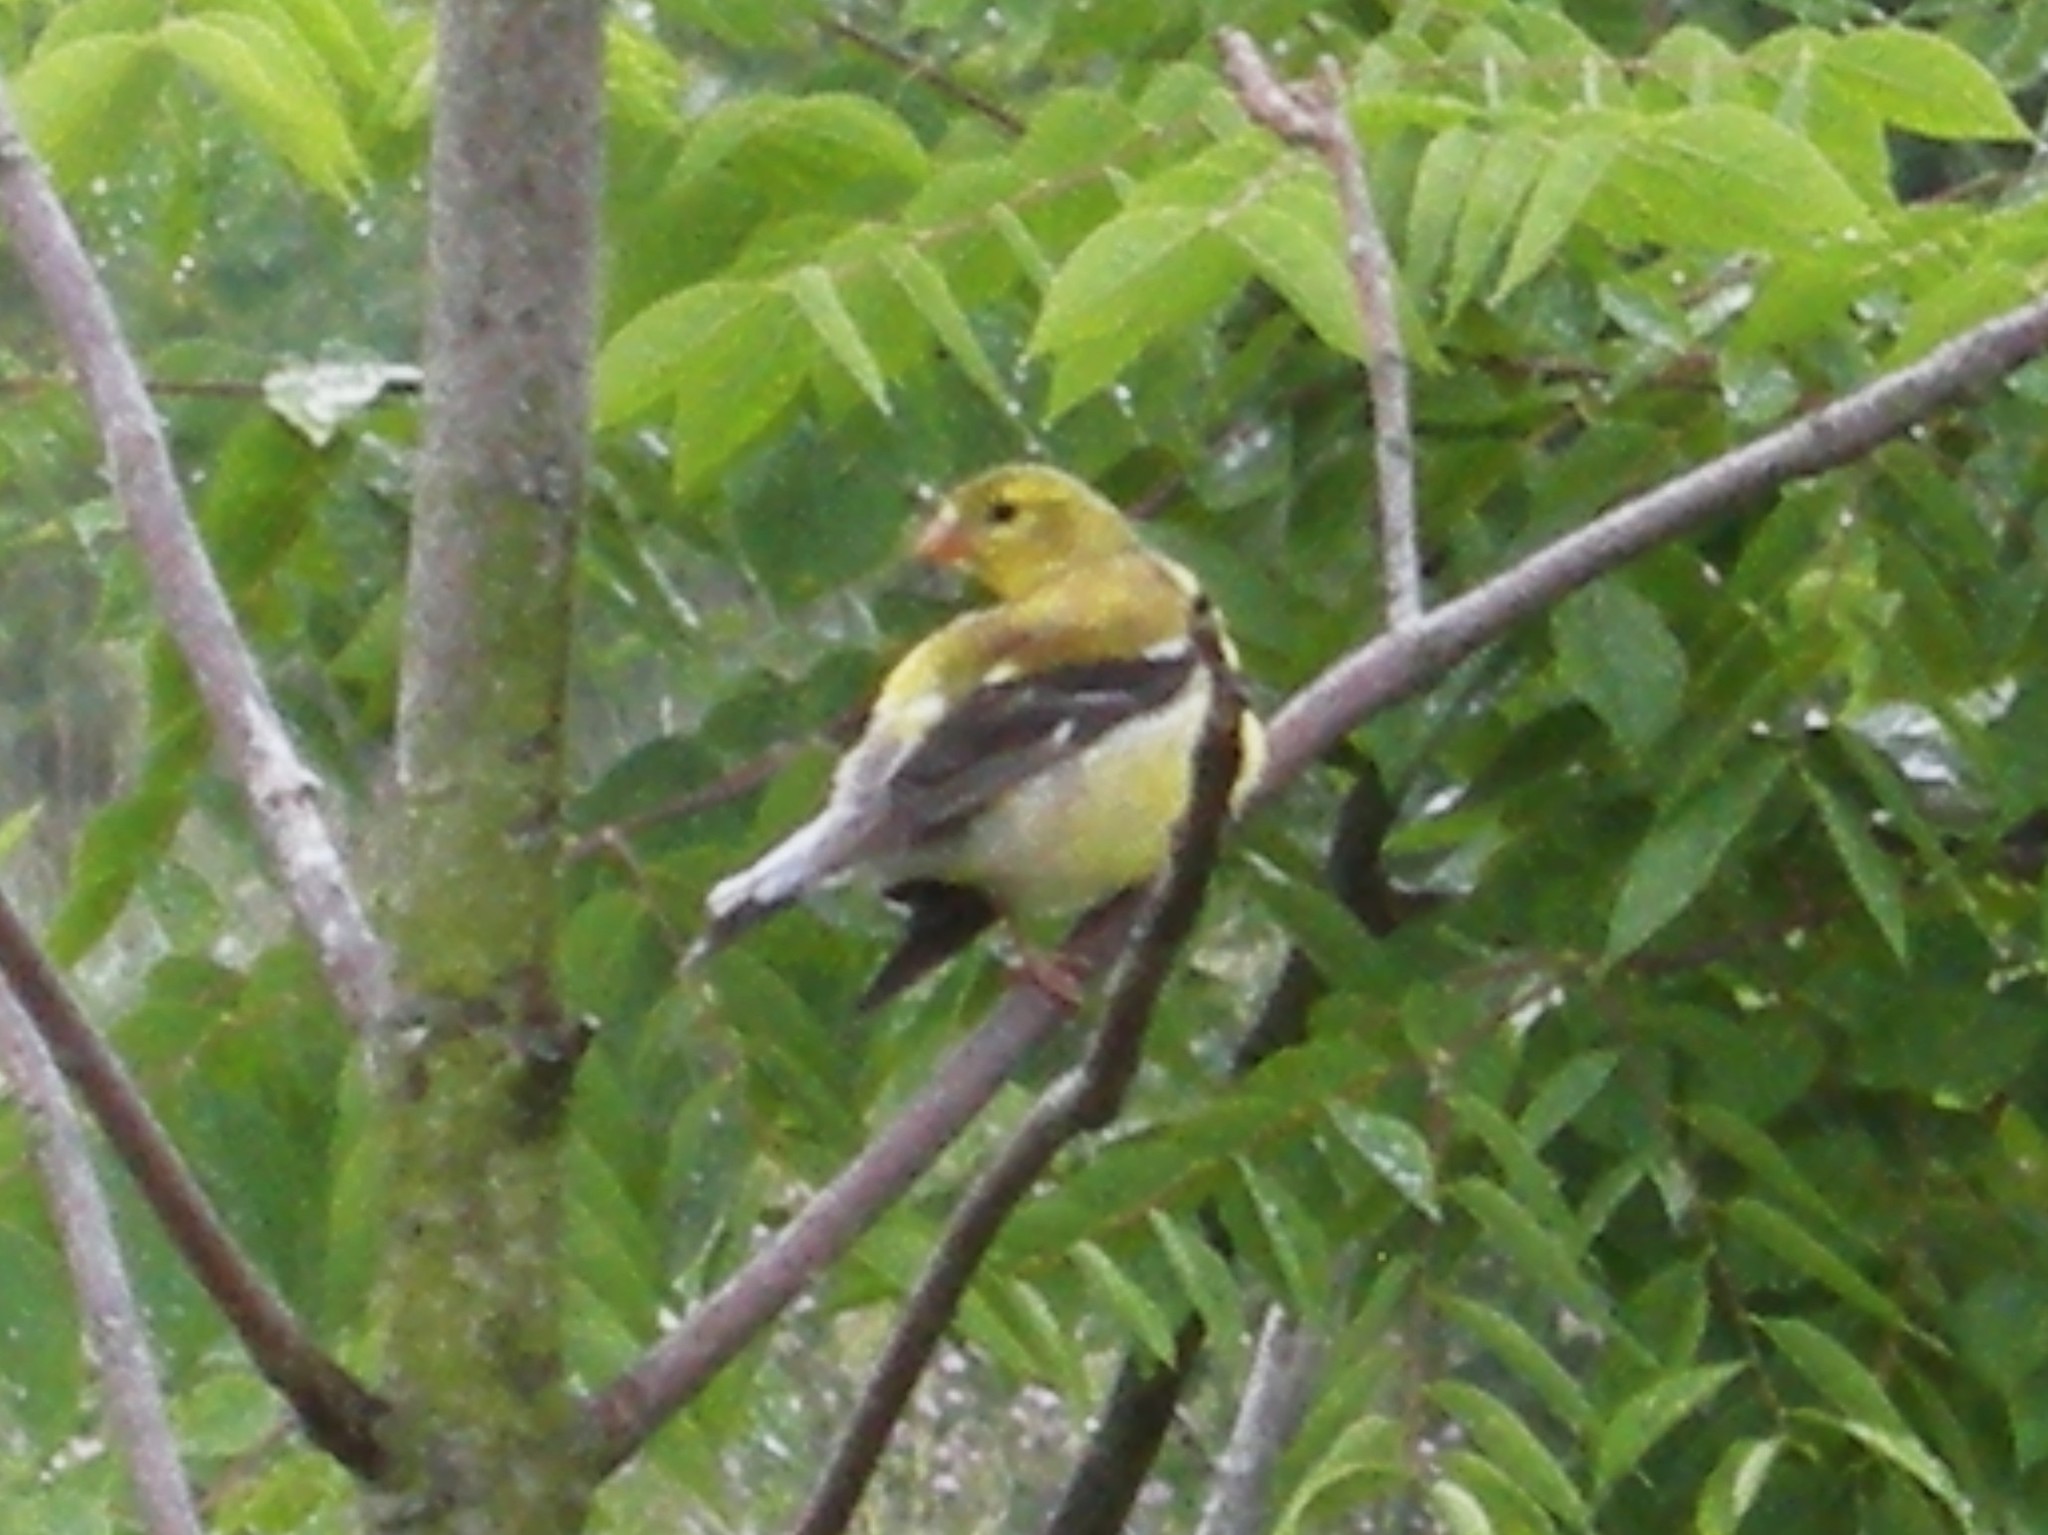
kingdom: Animalia
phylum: Chordata
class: Aves
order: Passeriformes
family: Fringillidae
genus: Spinus
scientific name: Spinus tristis
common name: American goldfinch
